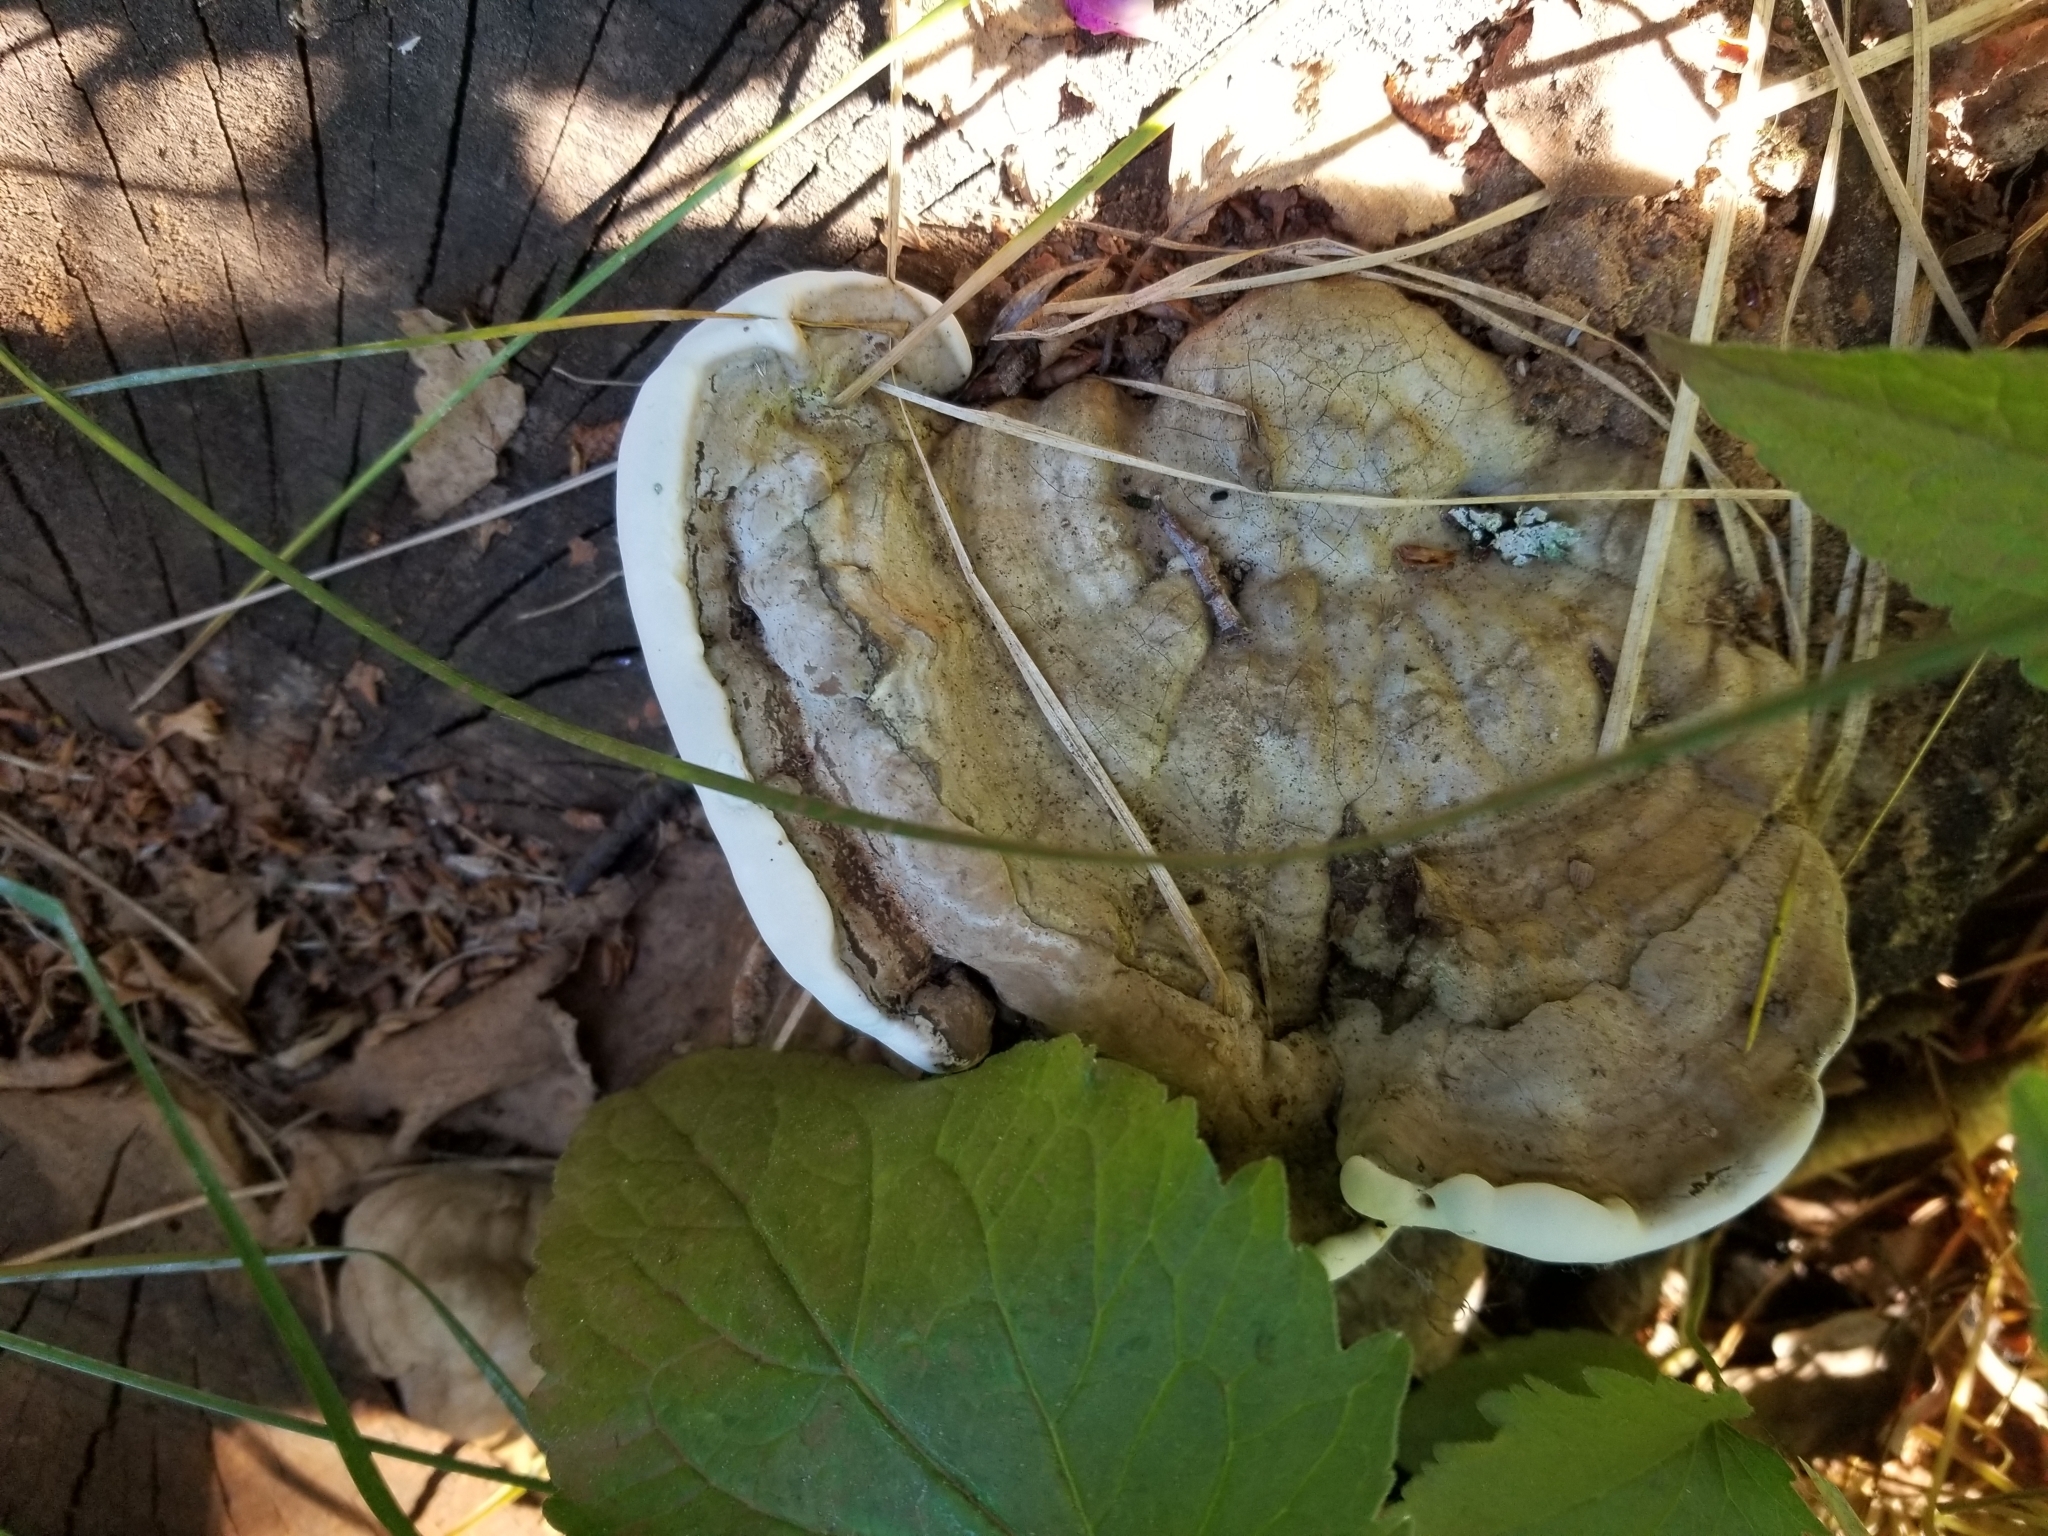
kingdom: Fungi
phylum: Basidiomycota
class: Agaricomycetes
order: Polyporales
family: Polyporaceae
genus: Ganoderma
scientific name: Ganoderma applanatum
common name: Artist's bracket
